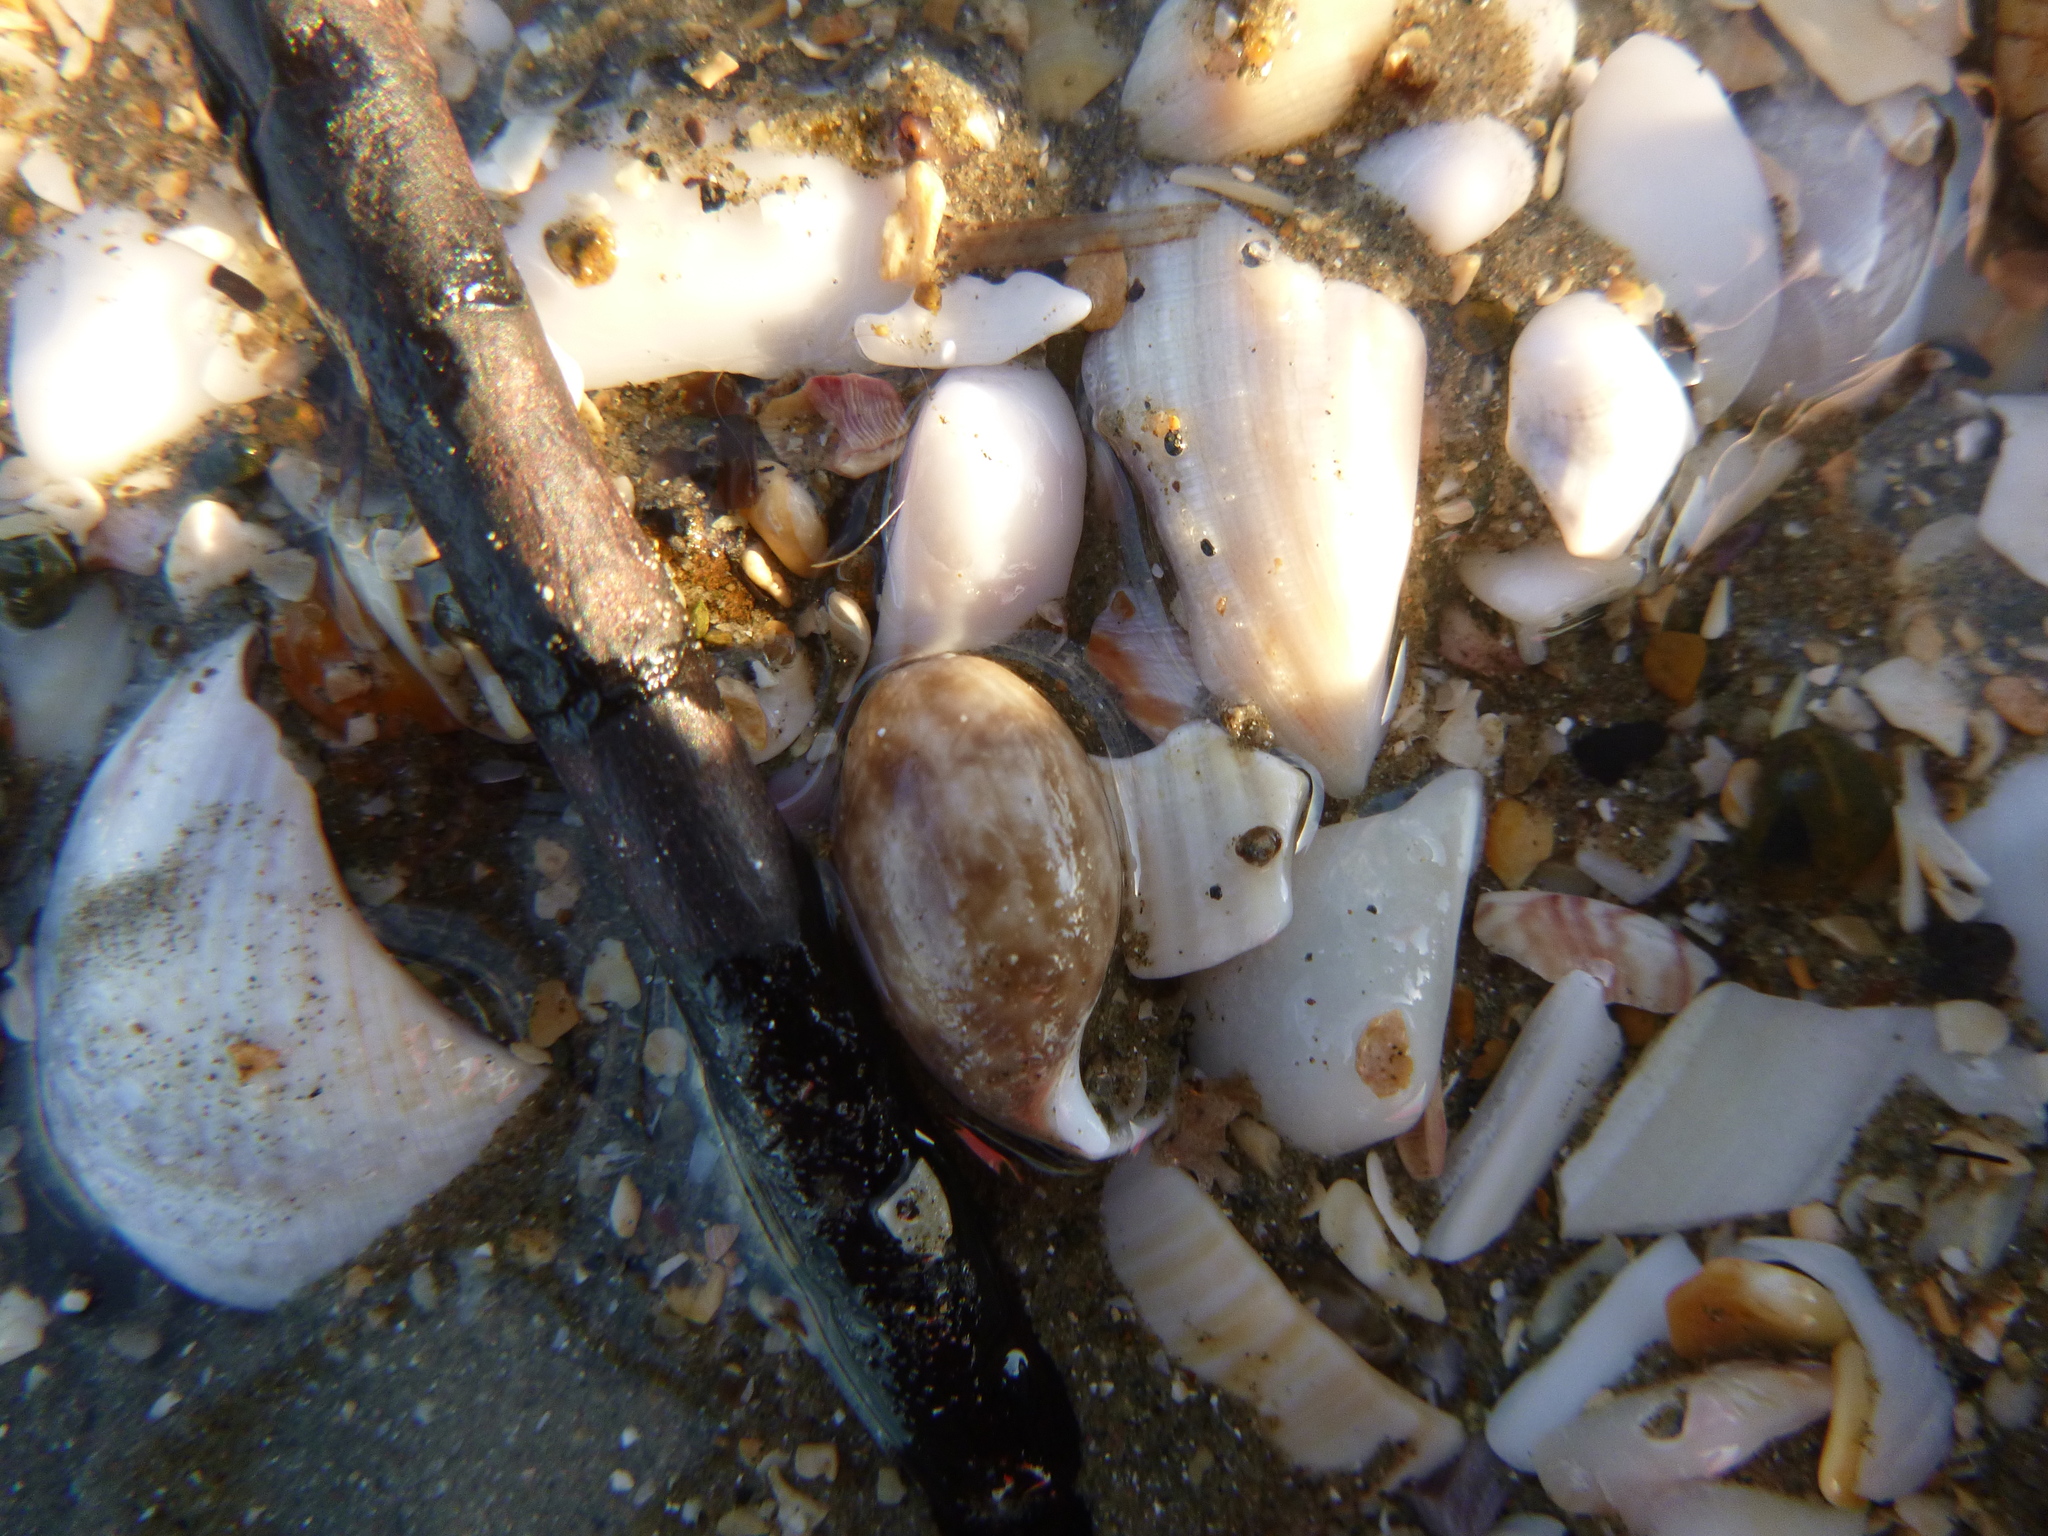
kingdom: Animalia
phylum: Mollusca
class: Gastropoda
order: Cephalaspidea
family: Bullidae
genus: Bulla
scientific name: Bulla quoyii
